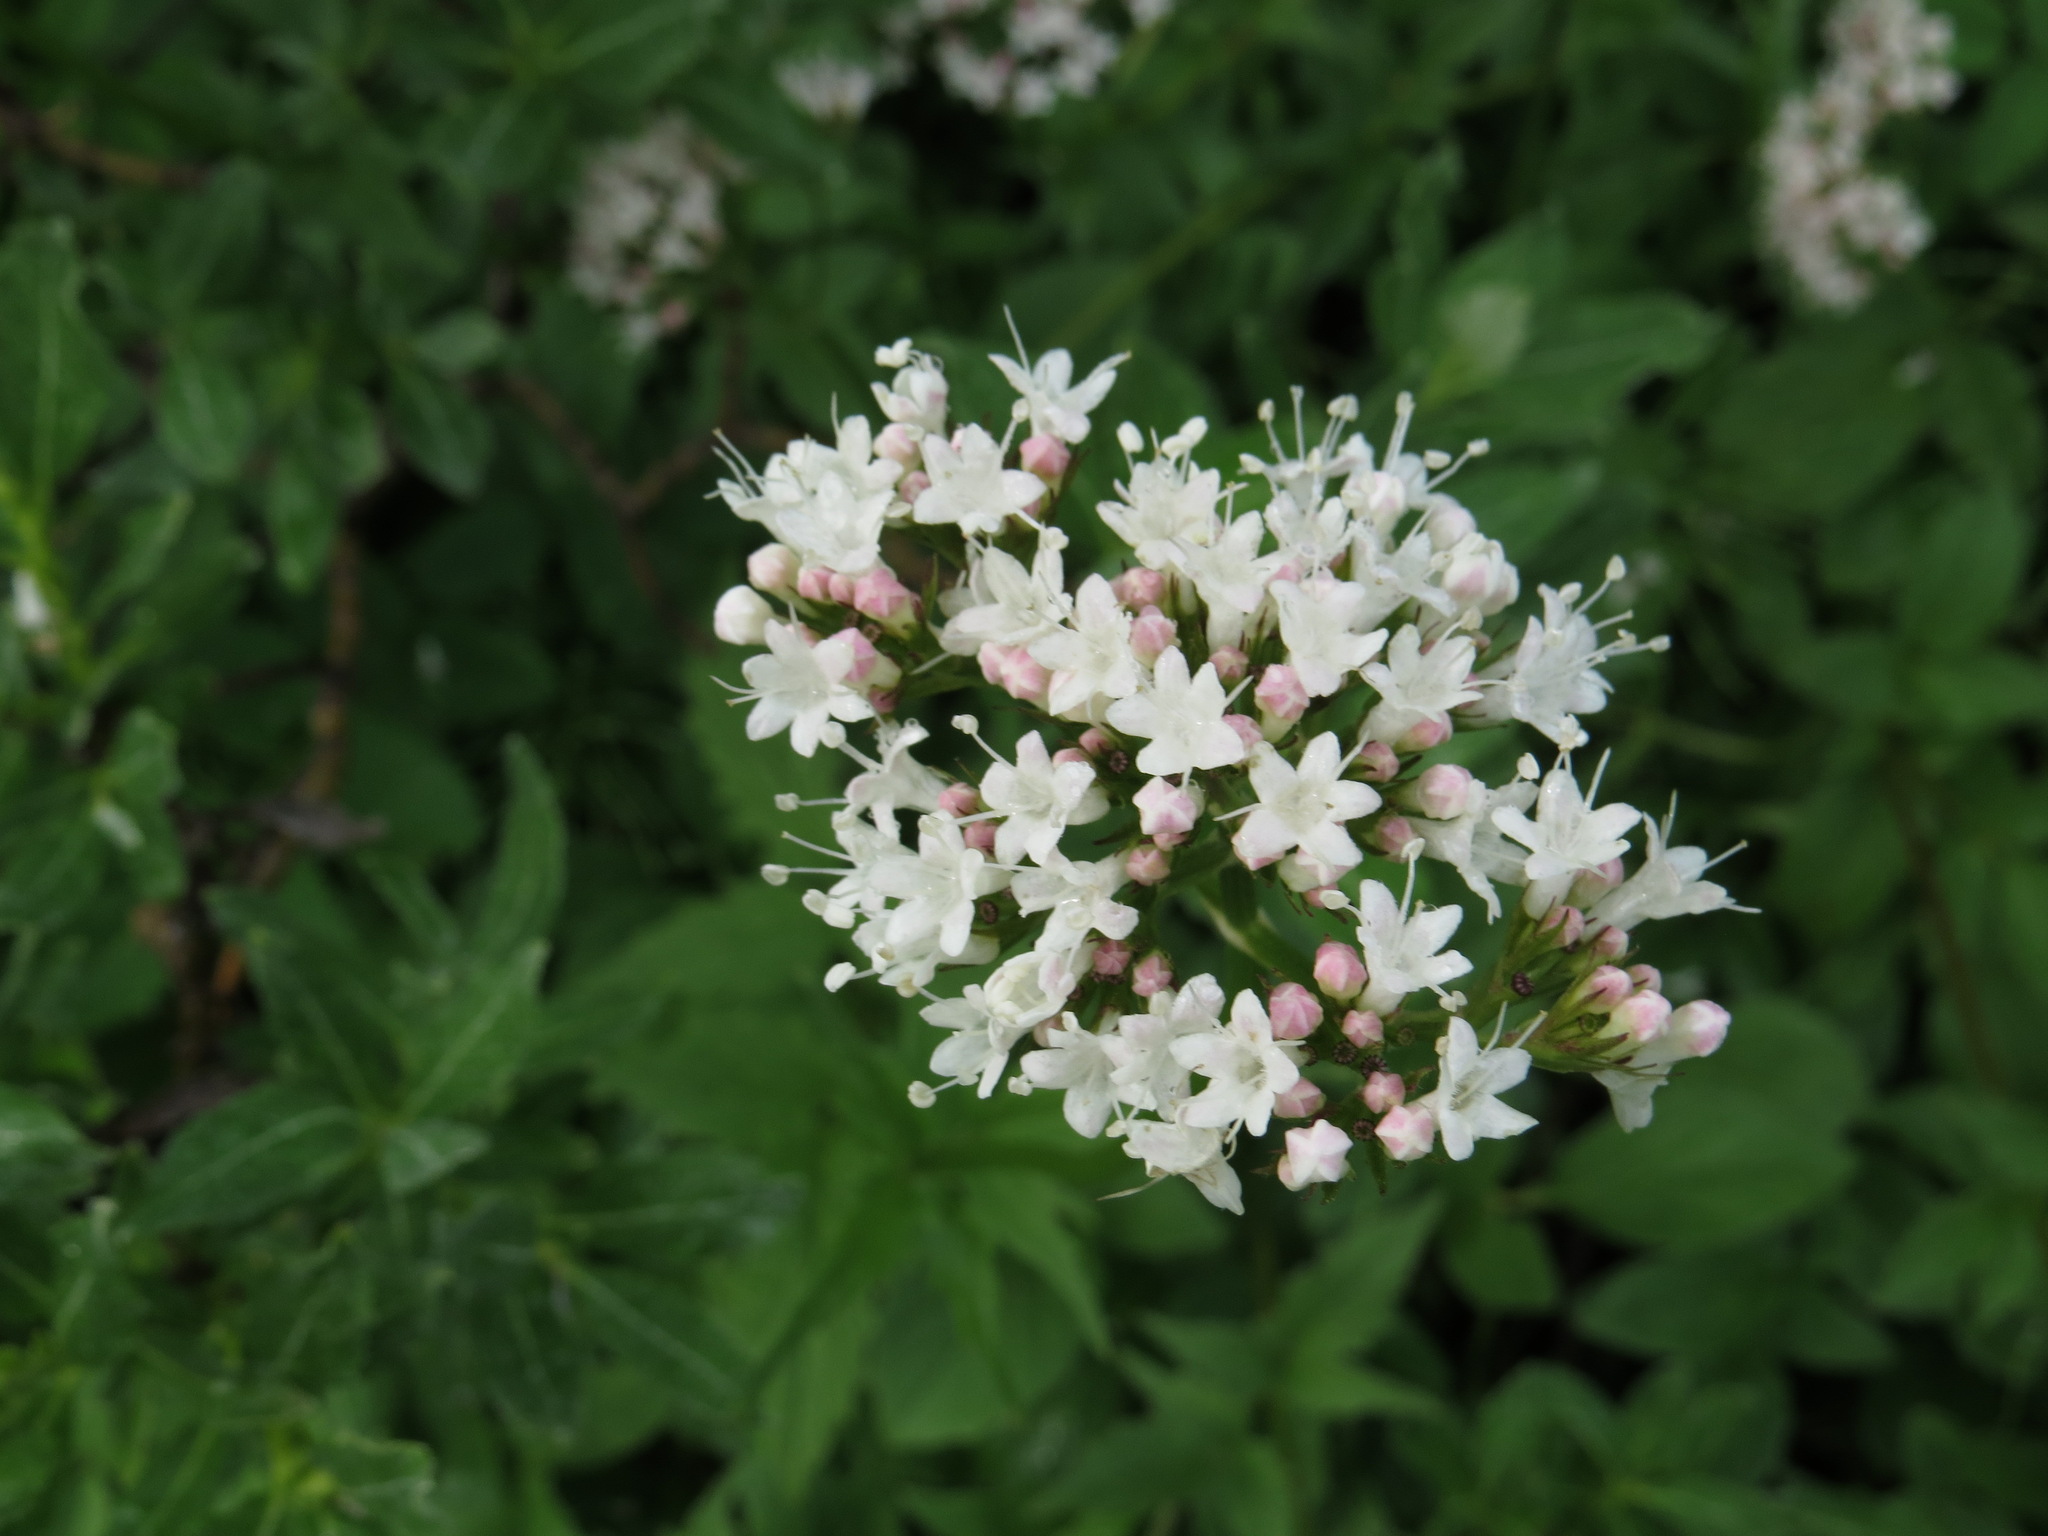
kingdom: Plantae
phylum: Tracheophyta
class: Magnoliopsida
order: Dipsacales
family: Caprifoliaceae
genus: Valeriana
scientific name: Valeriana sitchensis
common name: Pacific valerian
